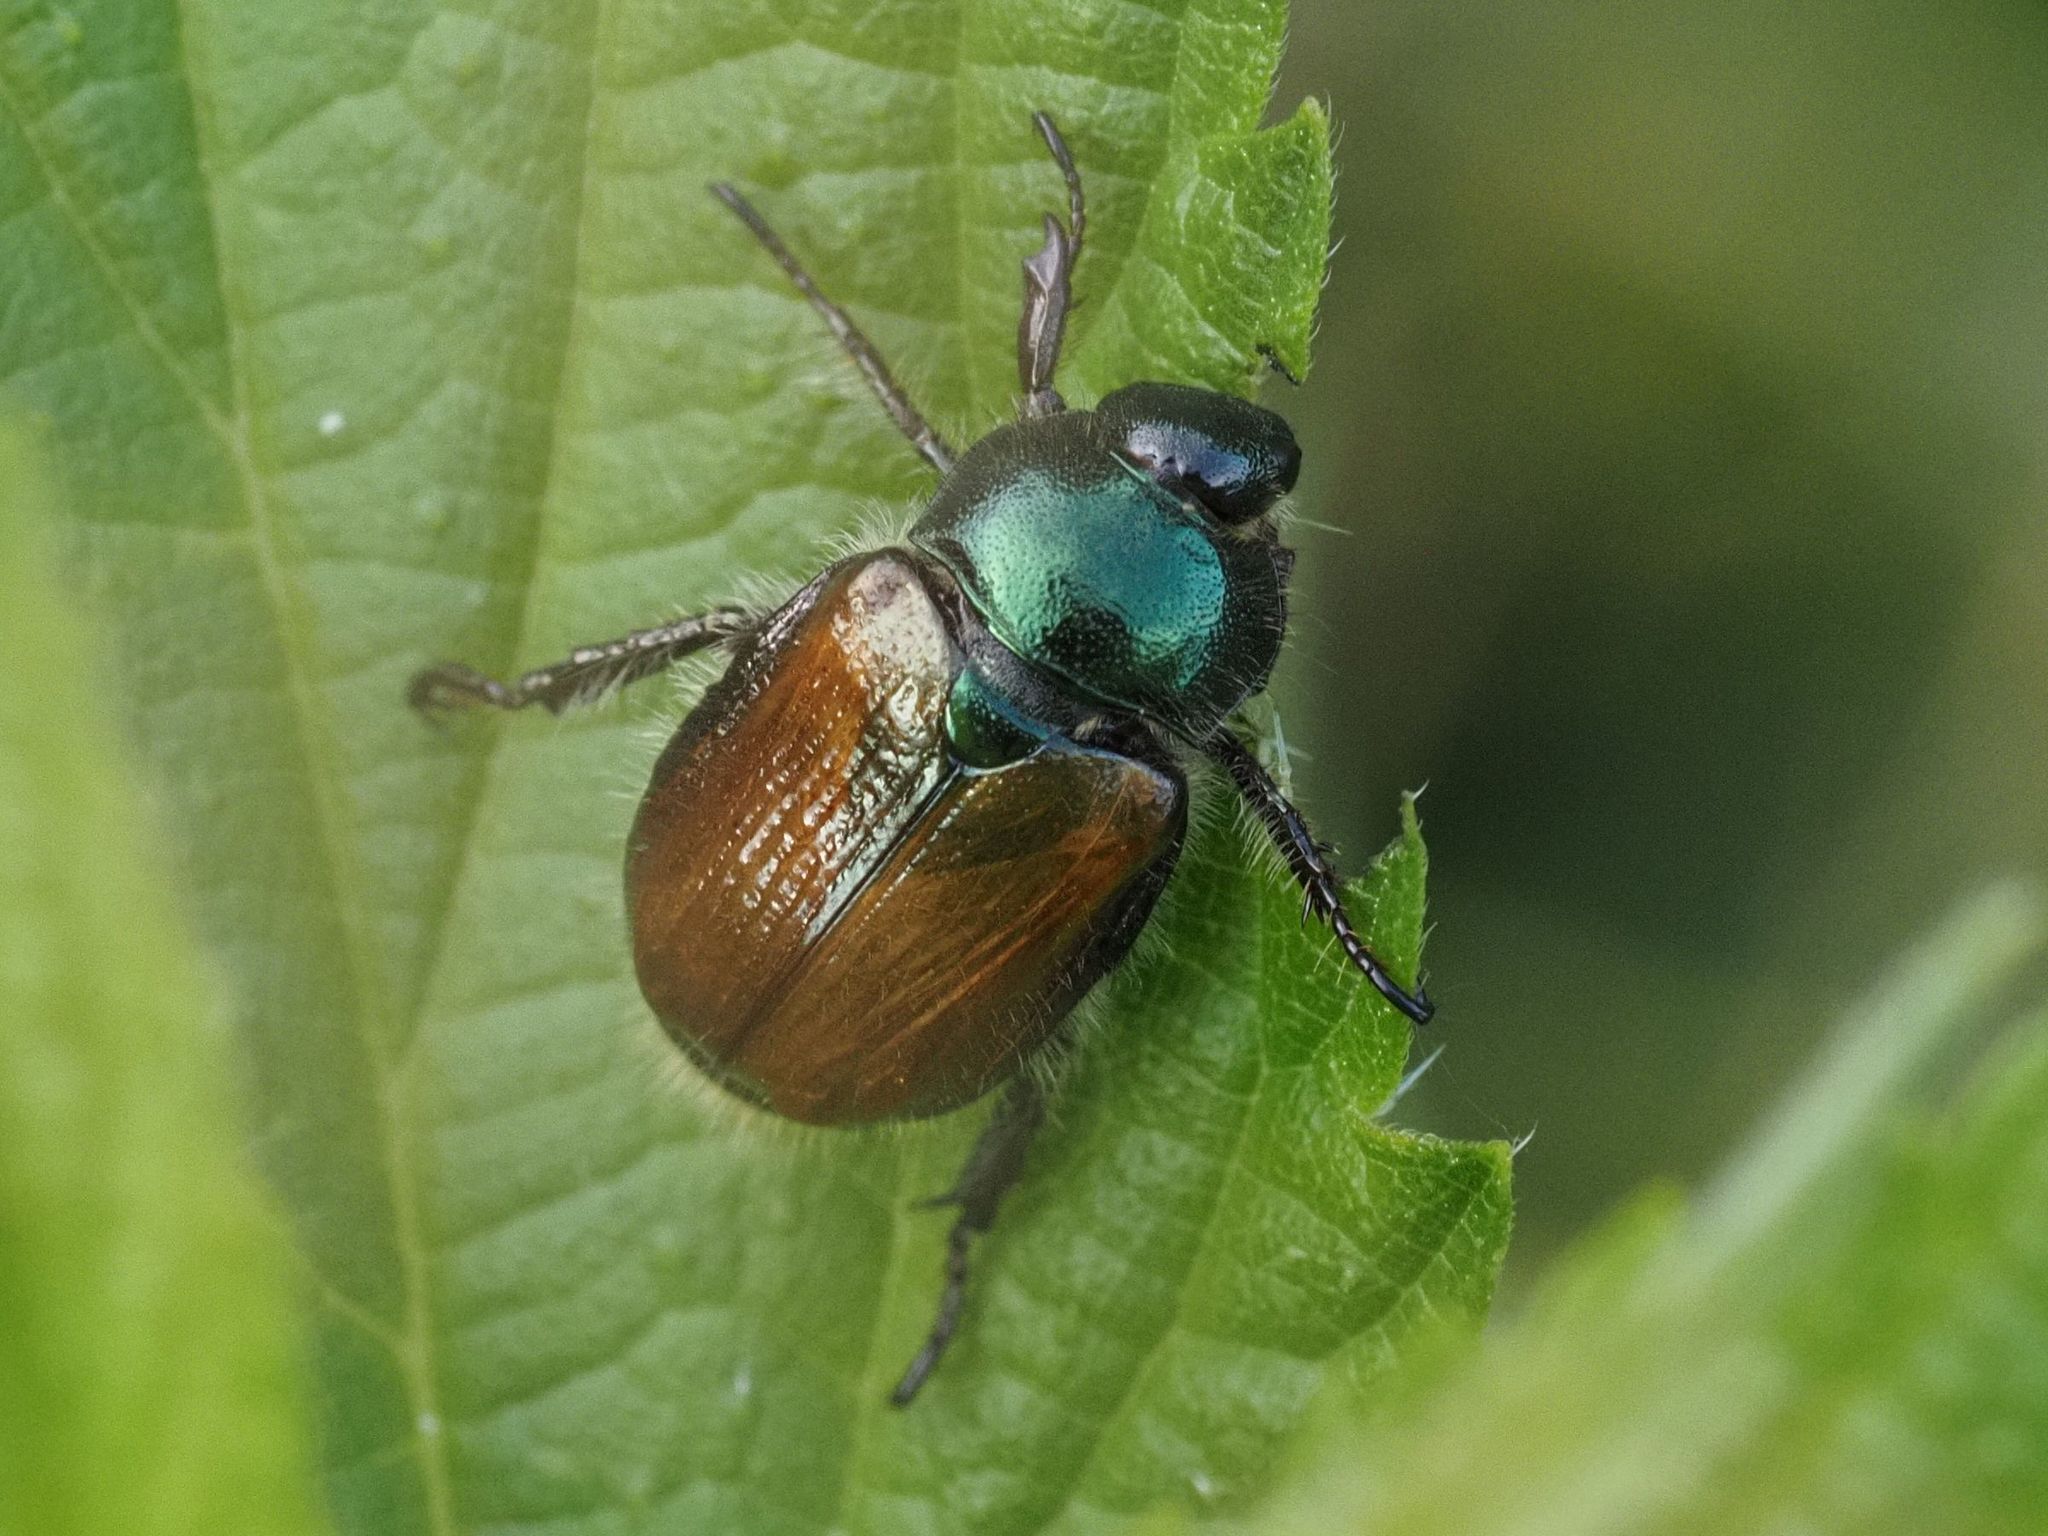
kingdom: Animalia
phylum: Arthropoda
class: Insecta
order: Coleoptera
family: Scarabaeidae
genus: Phyllopertha
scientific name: Phyllopertha horticola
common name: Garden chafer
